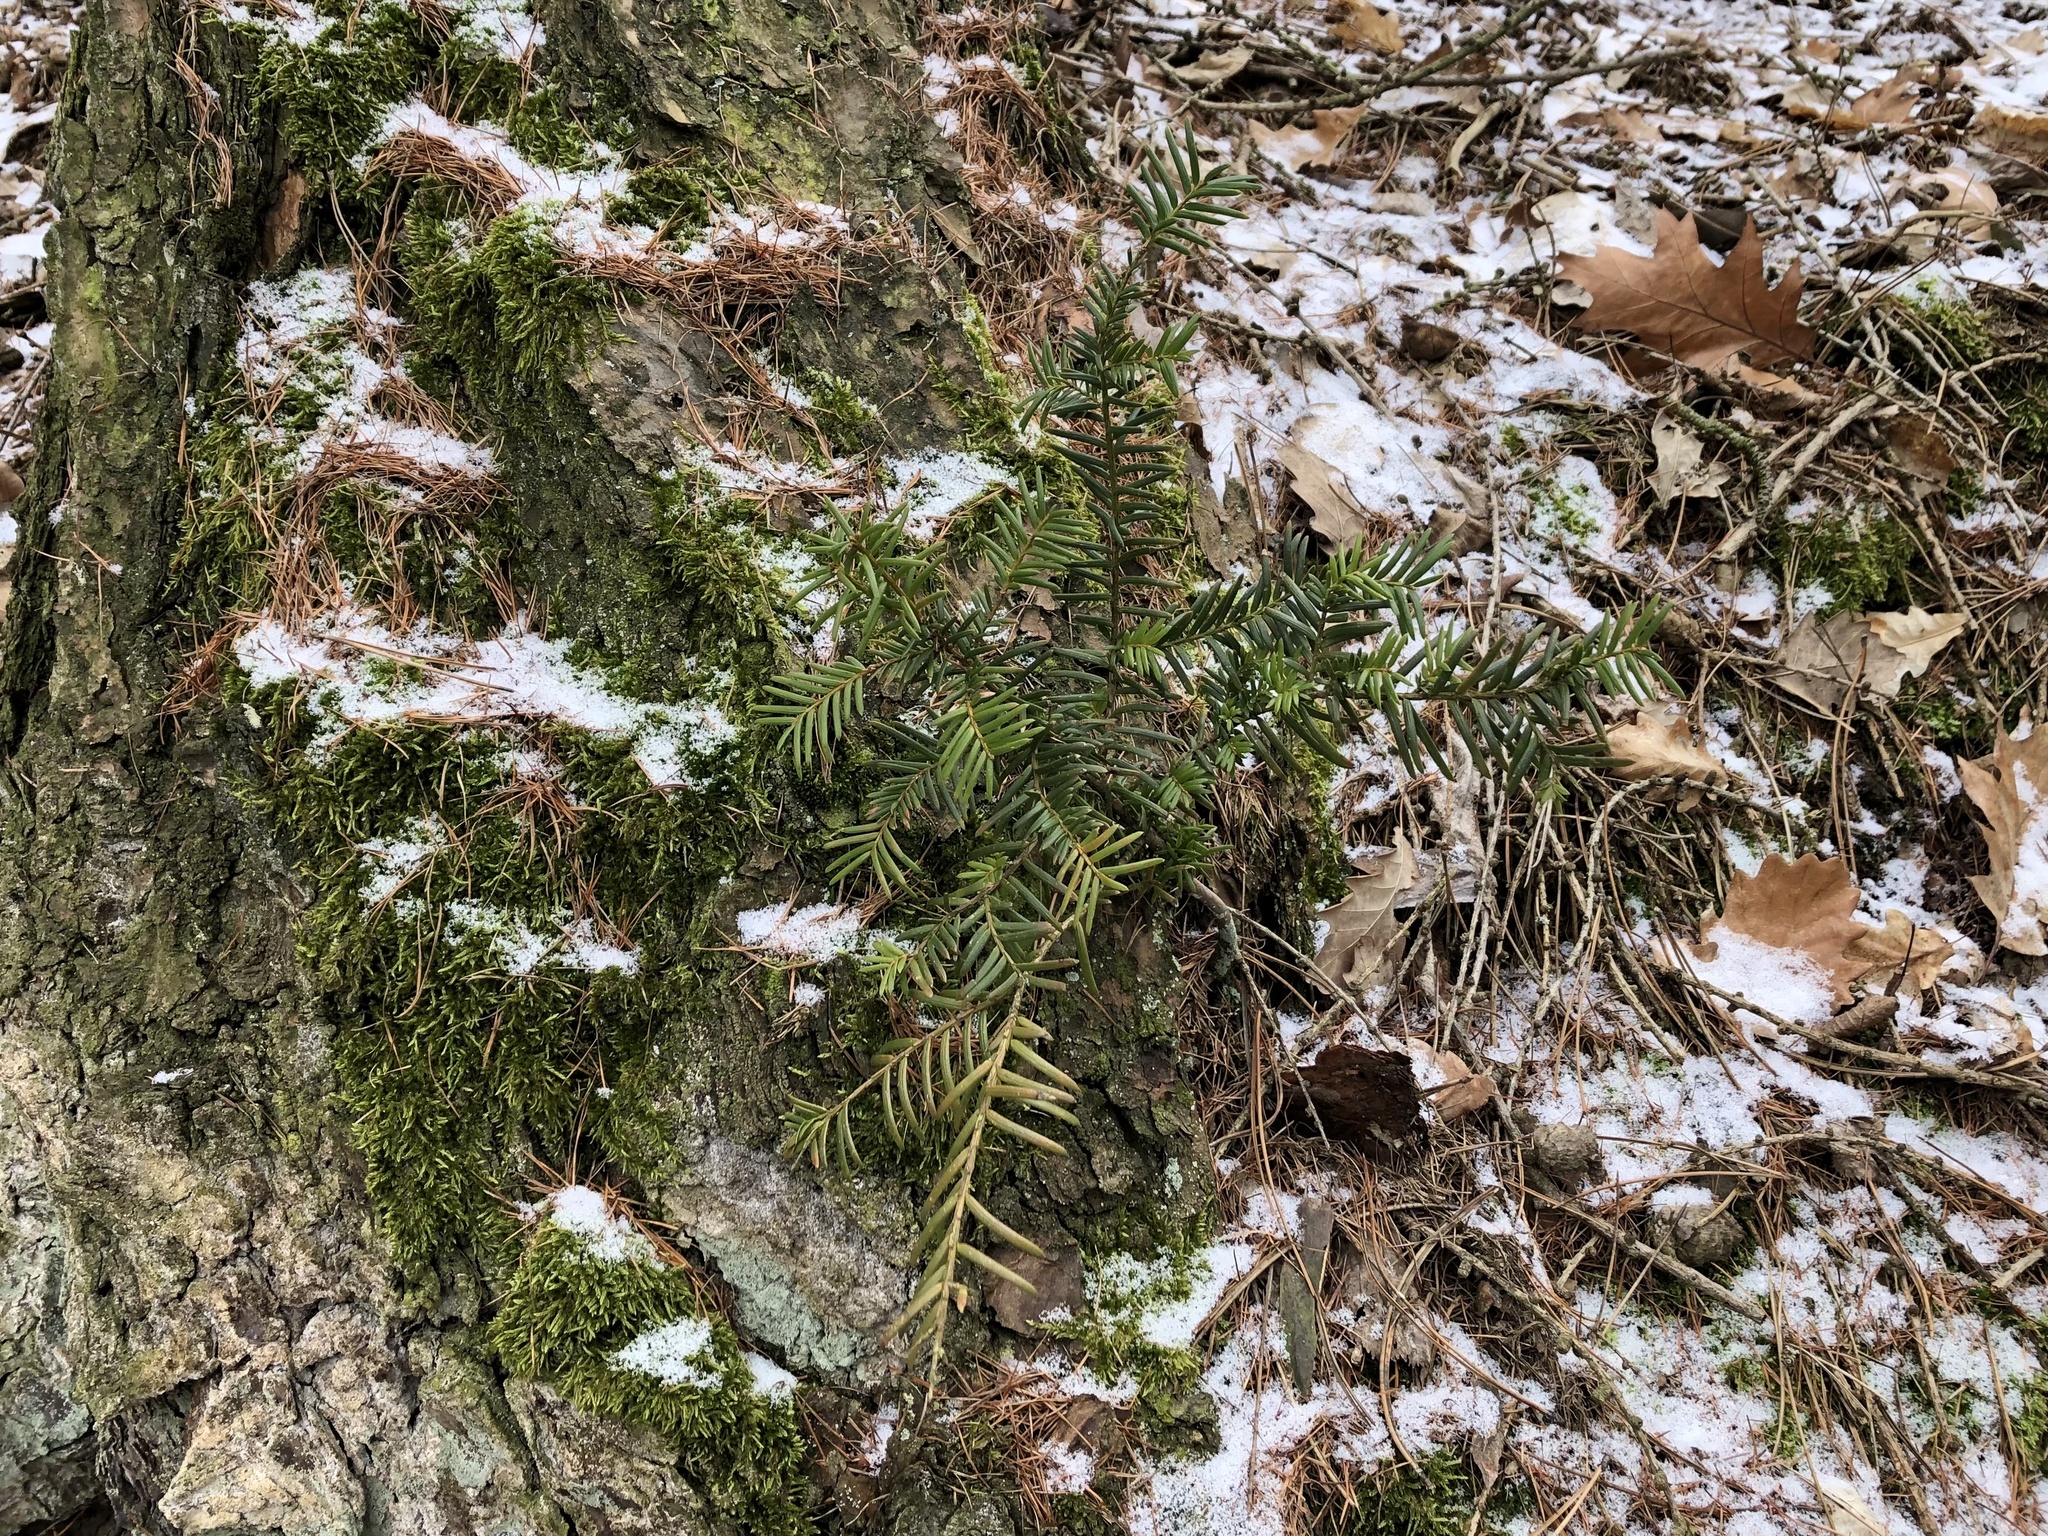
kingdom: Plantae
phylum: Tracheophyta
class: Pinopsida
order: Pinales
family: Taxaceae
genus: Taxus
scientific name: Taxus baccata
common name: Yew
